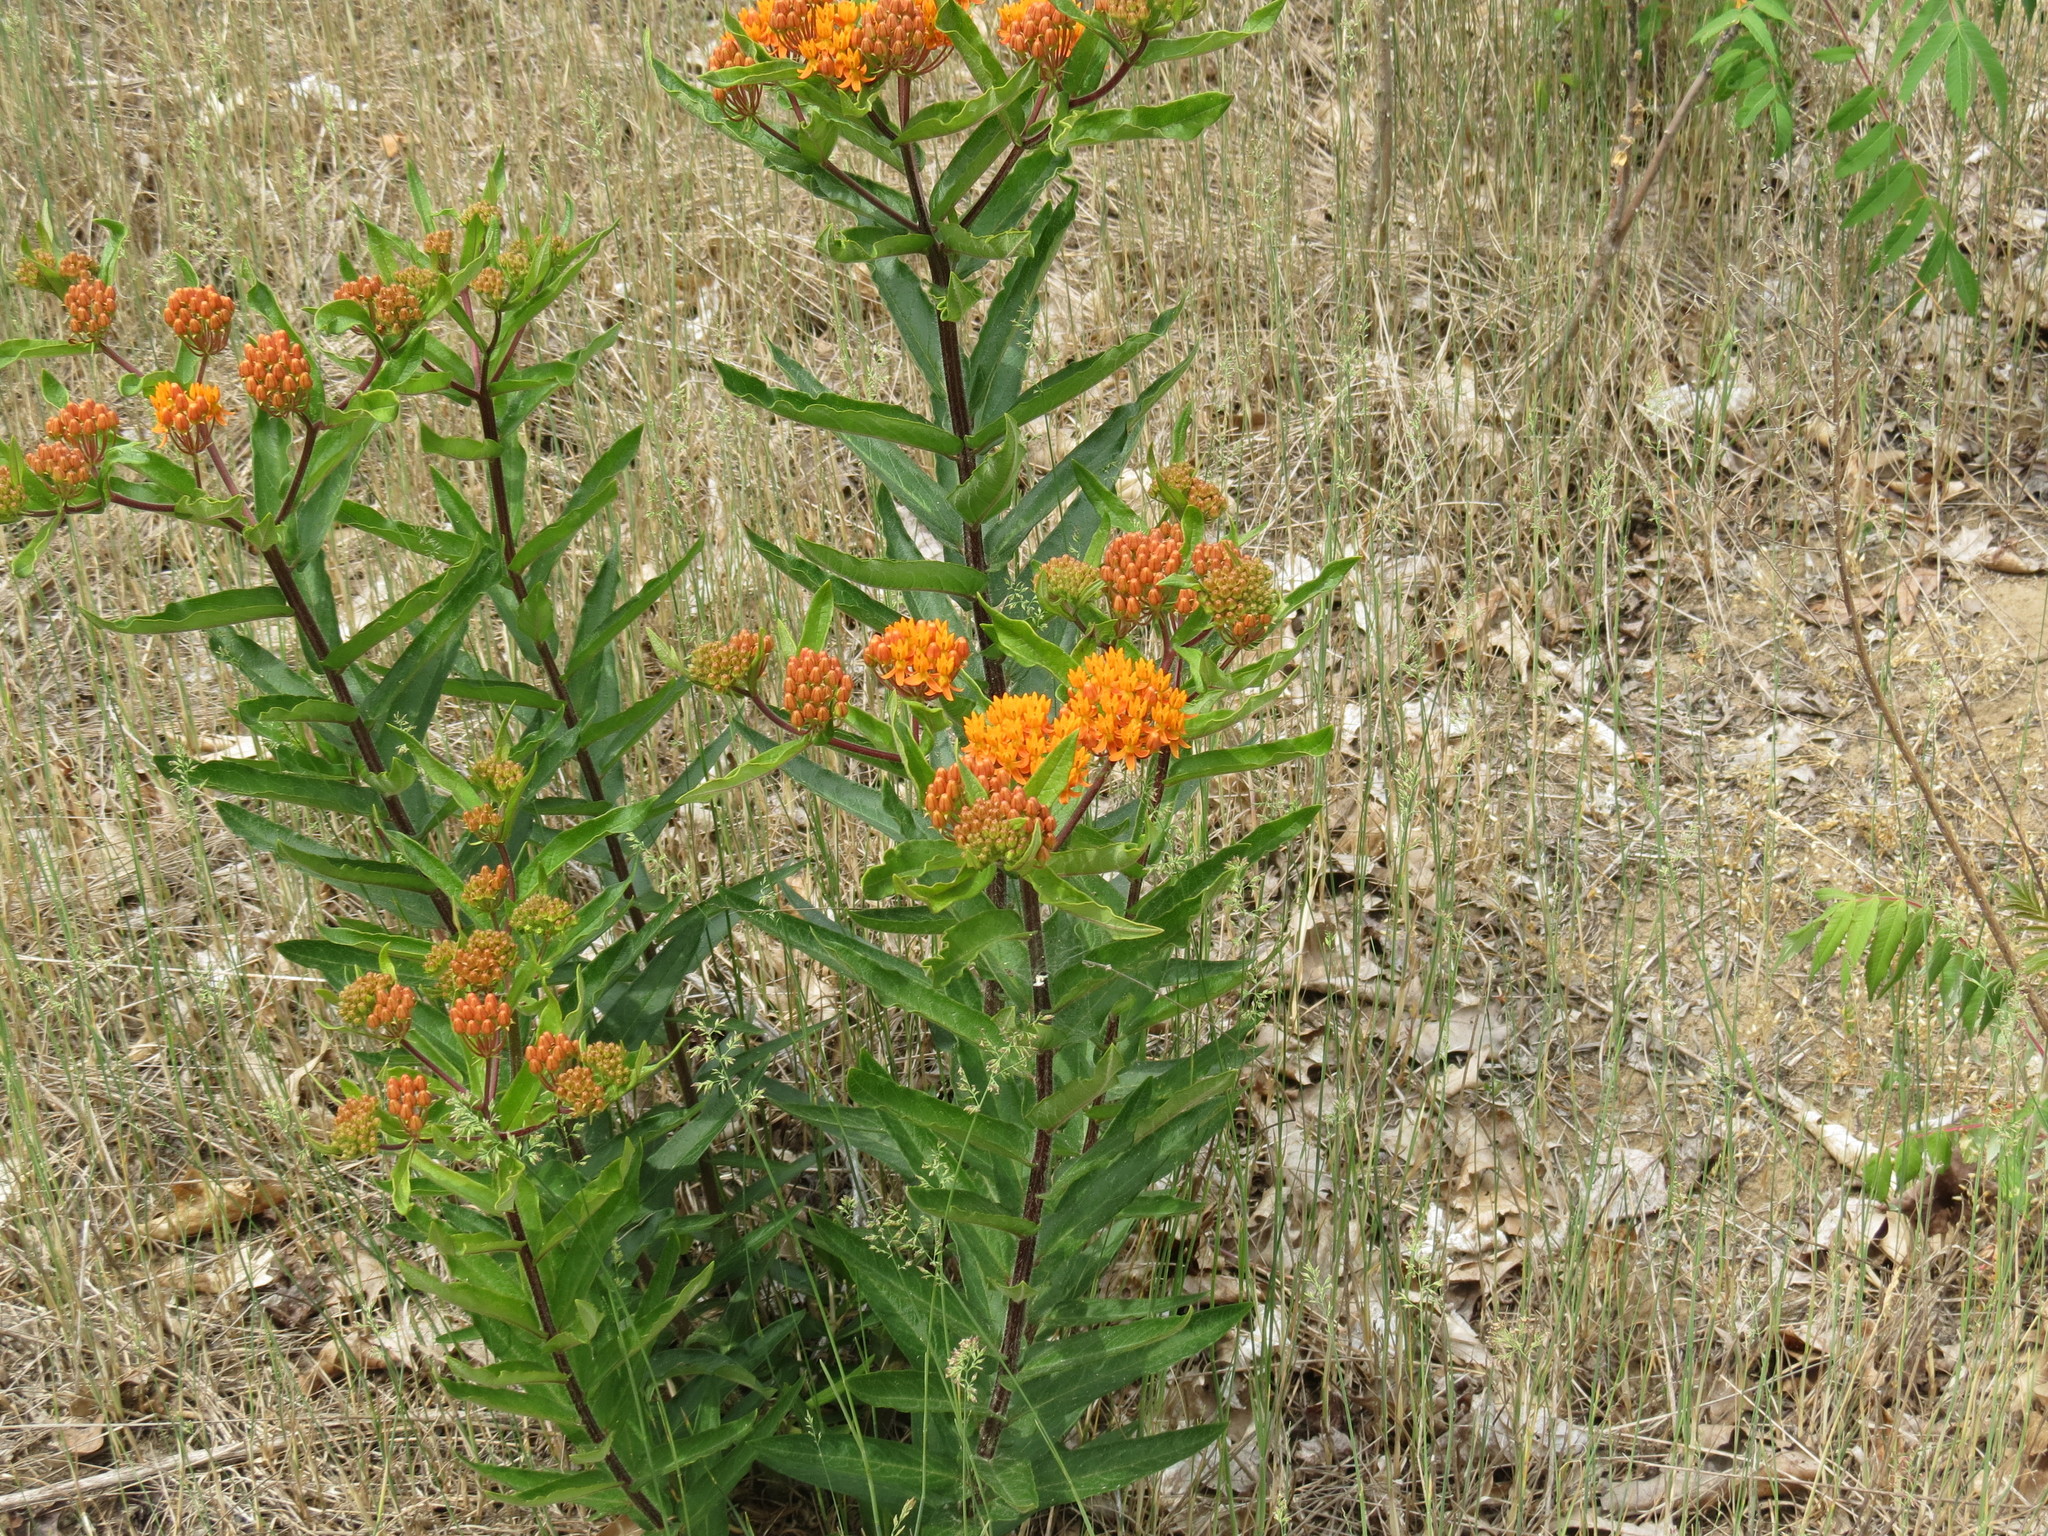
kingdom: Plantae
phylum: Tracheophyta
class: Magnoliopsida
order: Gentianales
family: Apocynaceae
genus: Asclepias
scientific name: Asclepias tuberosa
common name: Butterfly milkweed
